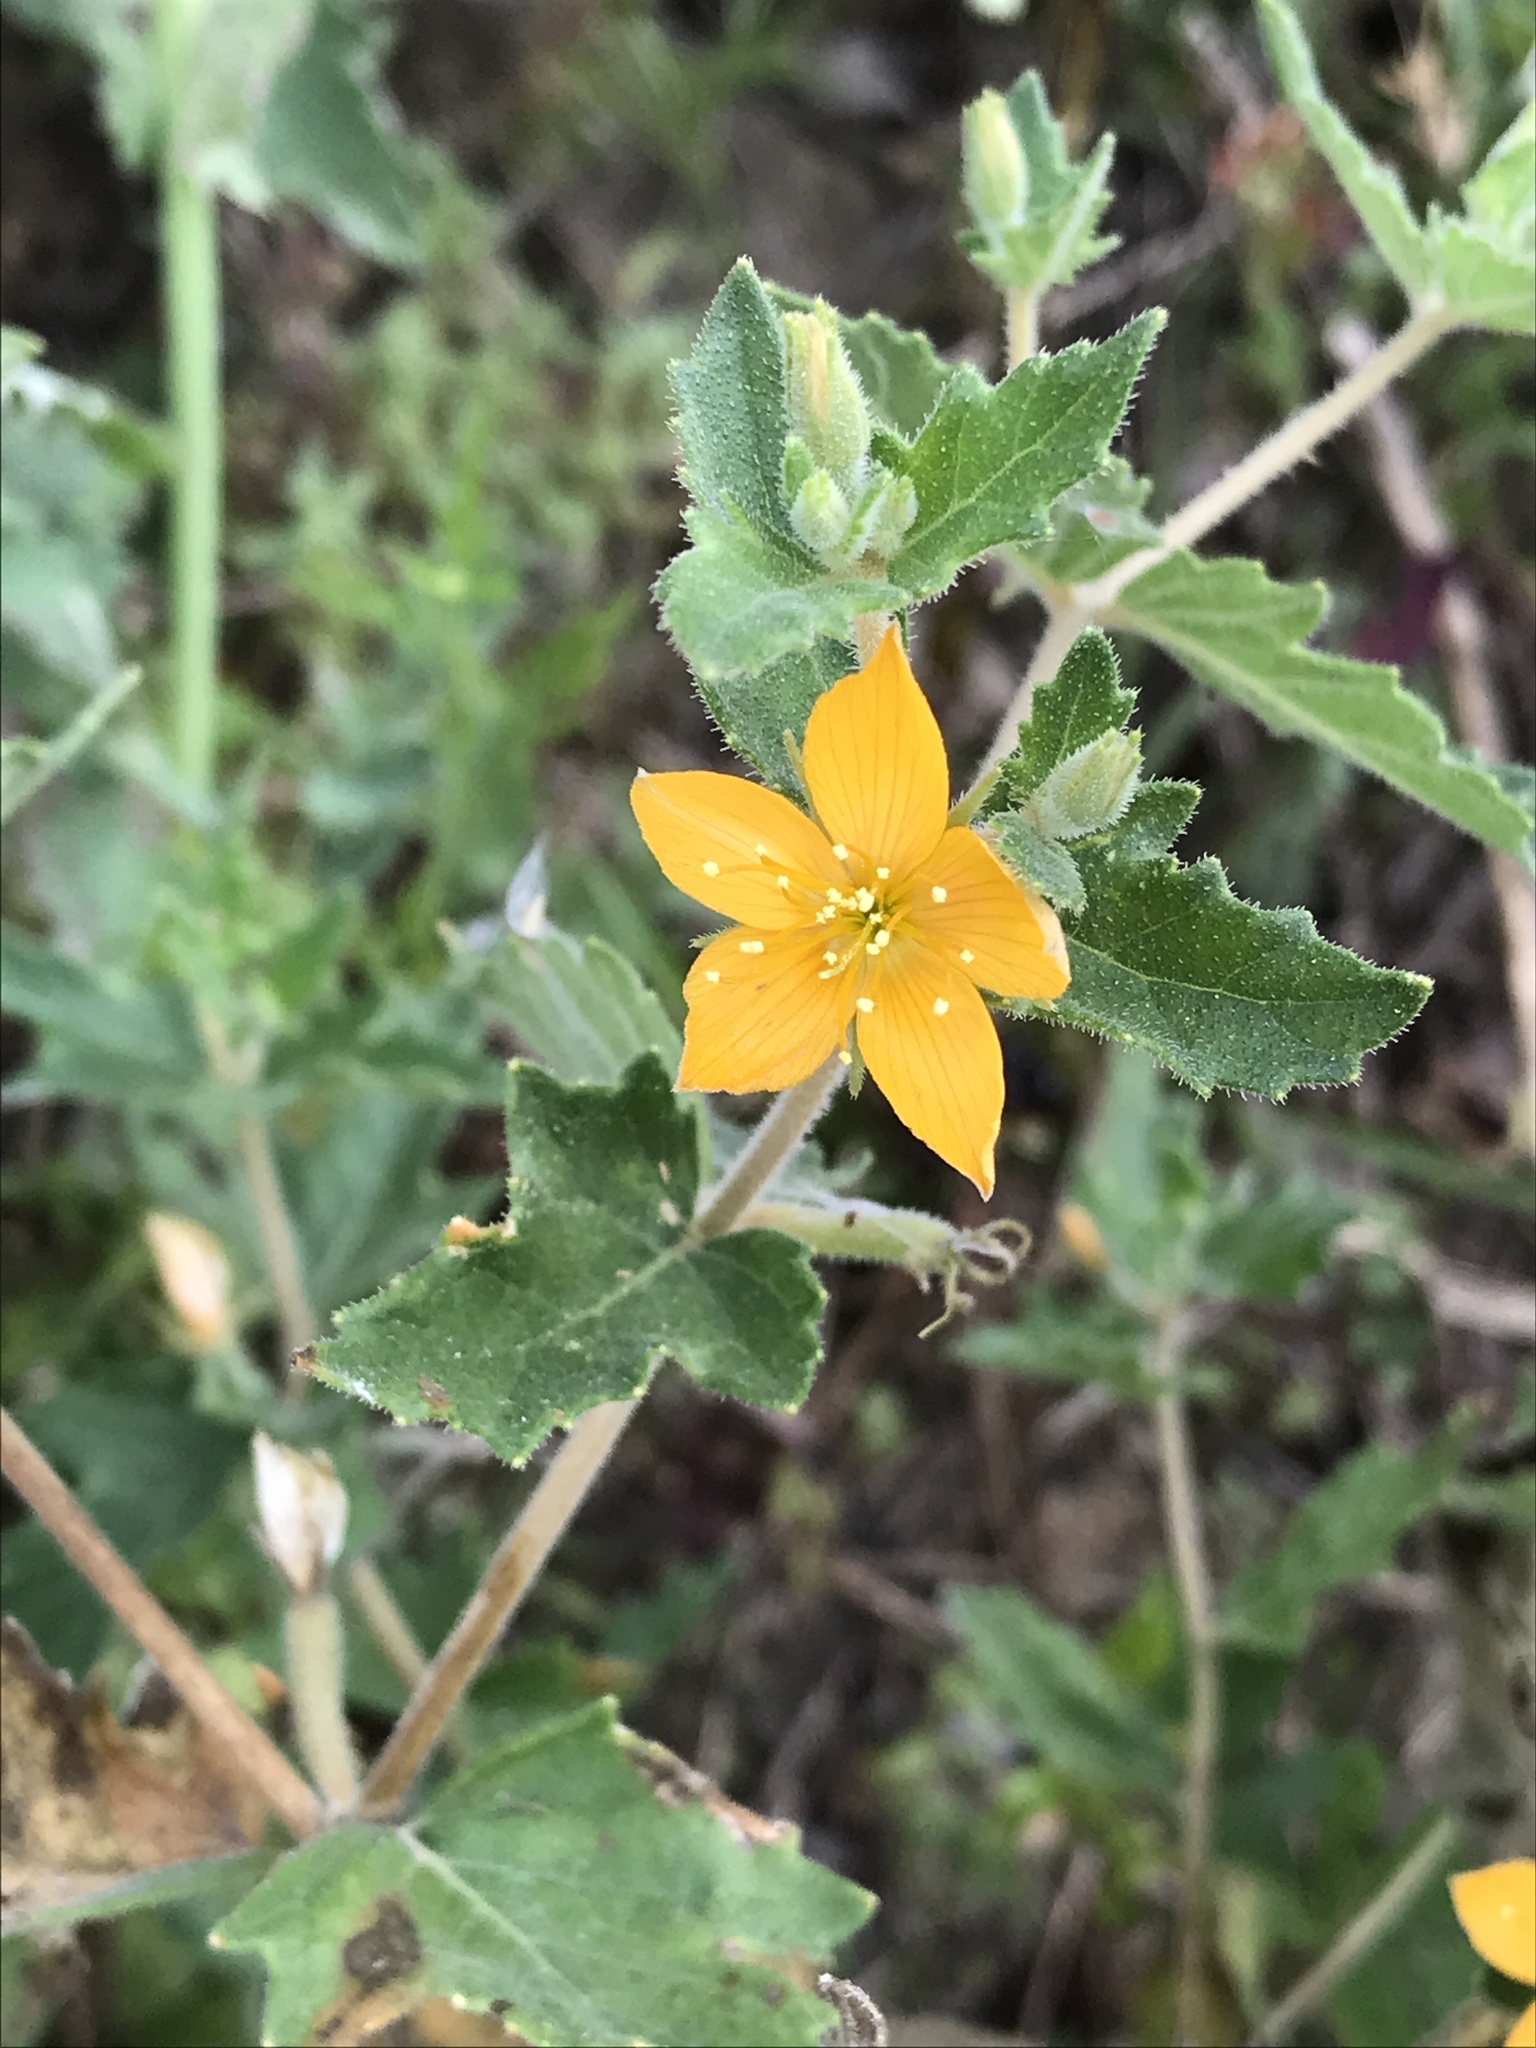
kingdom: Plantae
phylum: Tracheophyta
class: Magnoliopsida
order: Cornales
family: Loasaceae
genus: Mentzelia
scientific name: Mentzelia oligosperma
